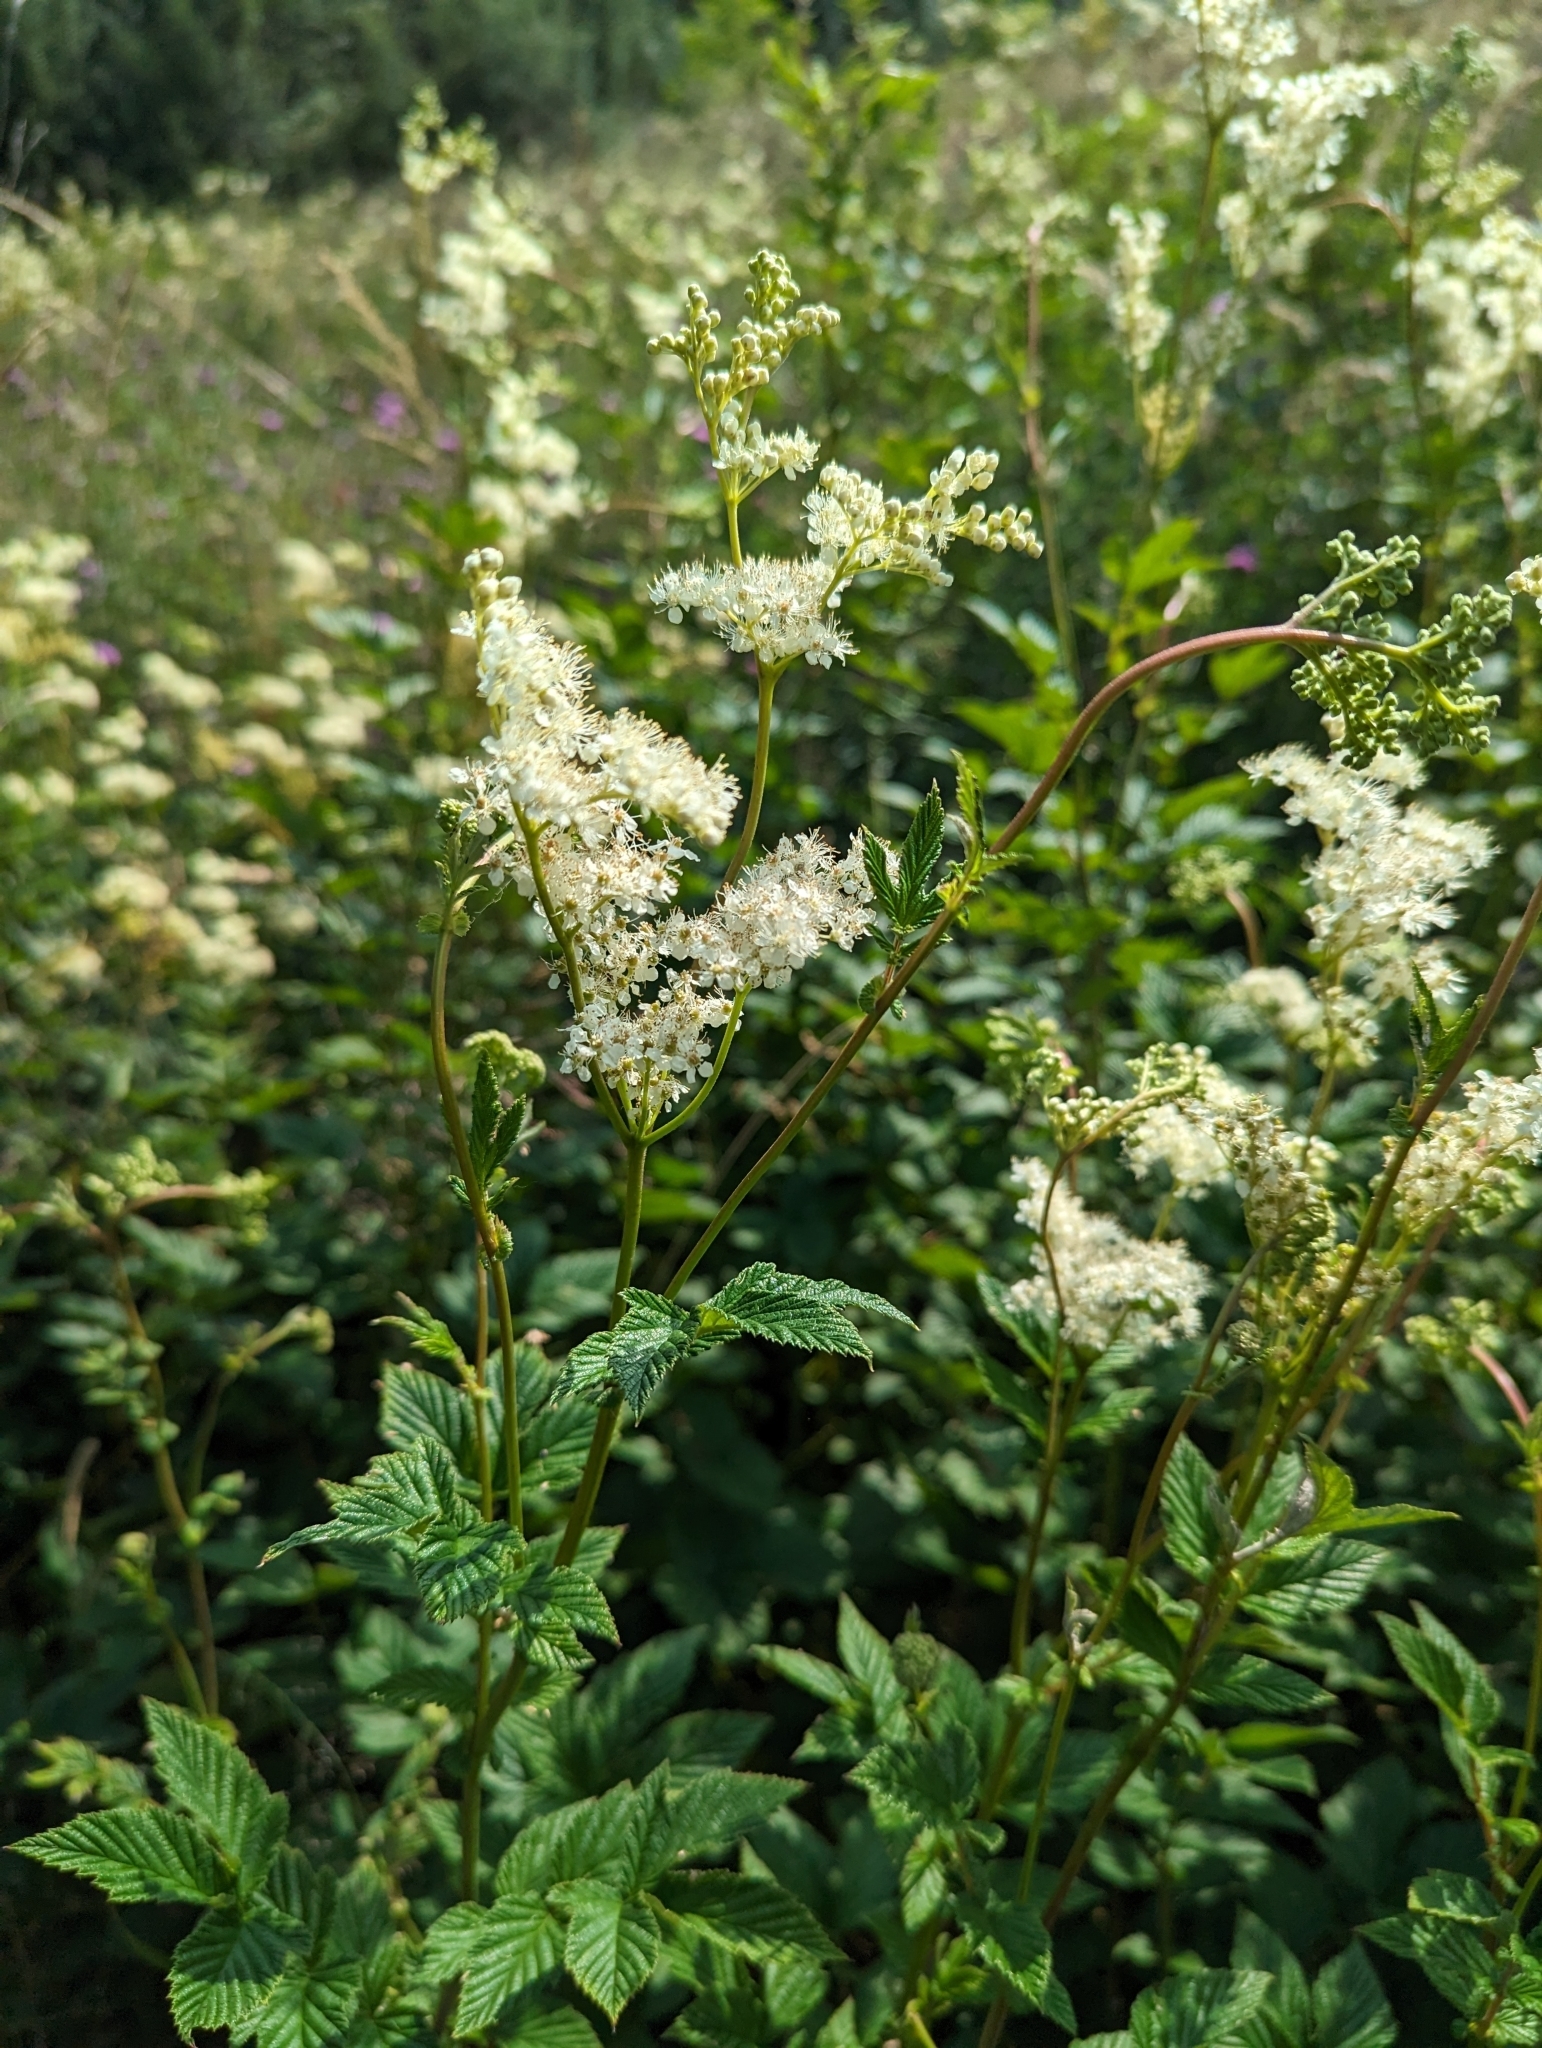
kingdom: Plantae
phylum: Tracheophyta
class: Magnoliopsida
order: Rosales
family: Rosaceae
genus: Filipendula
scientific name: Filipendula ulmaria
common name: Meadowsweet
